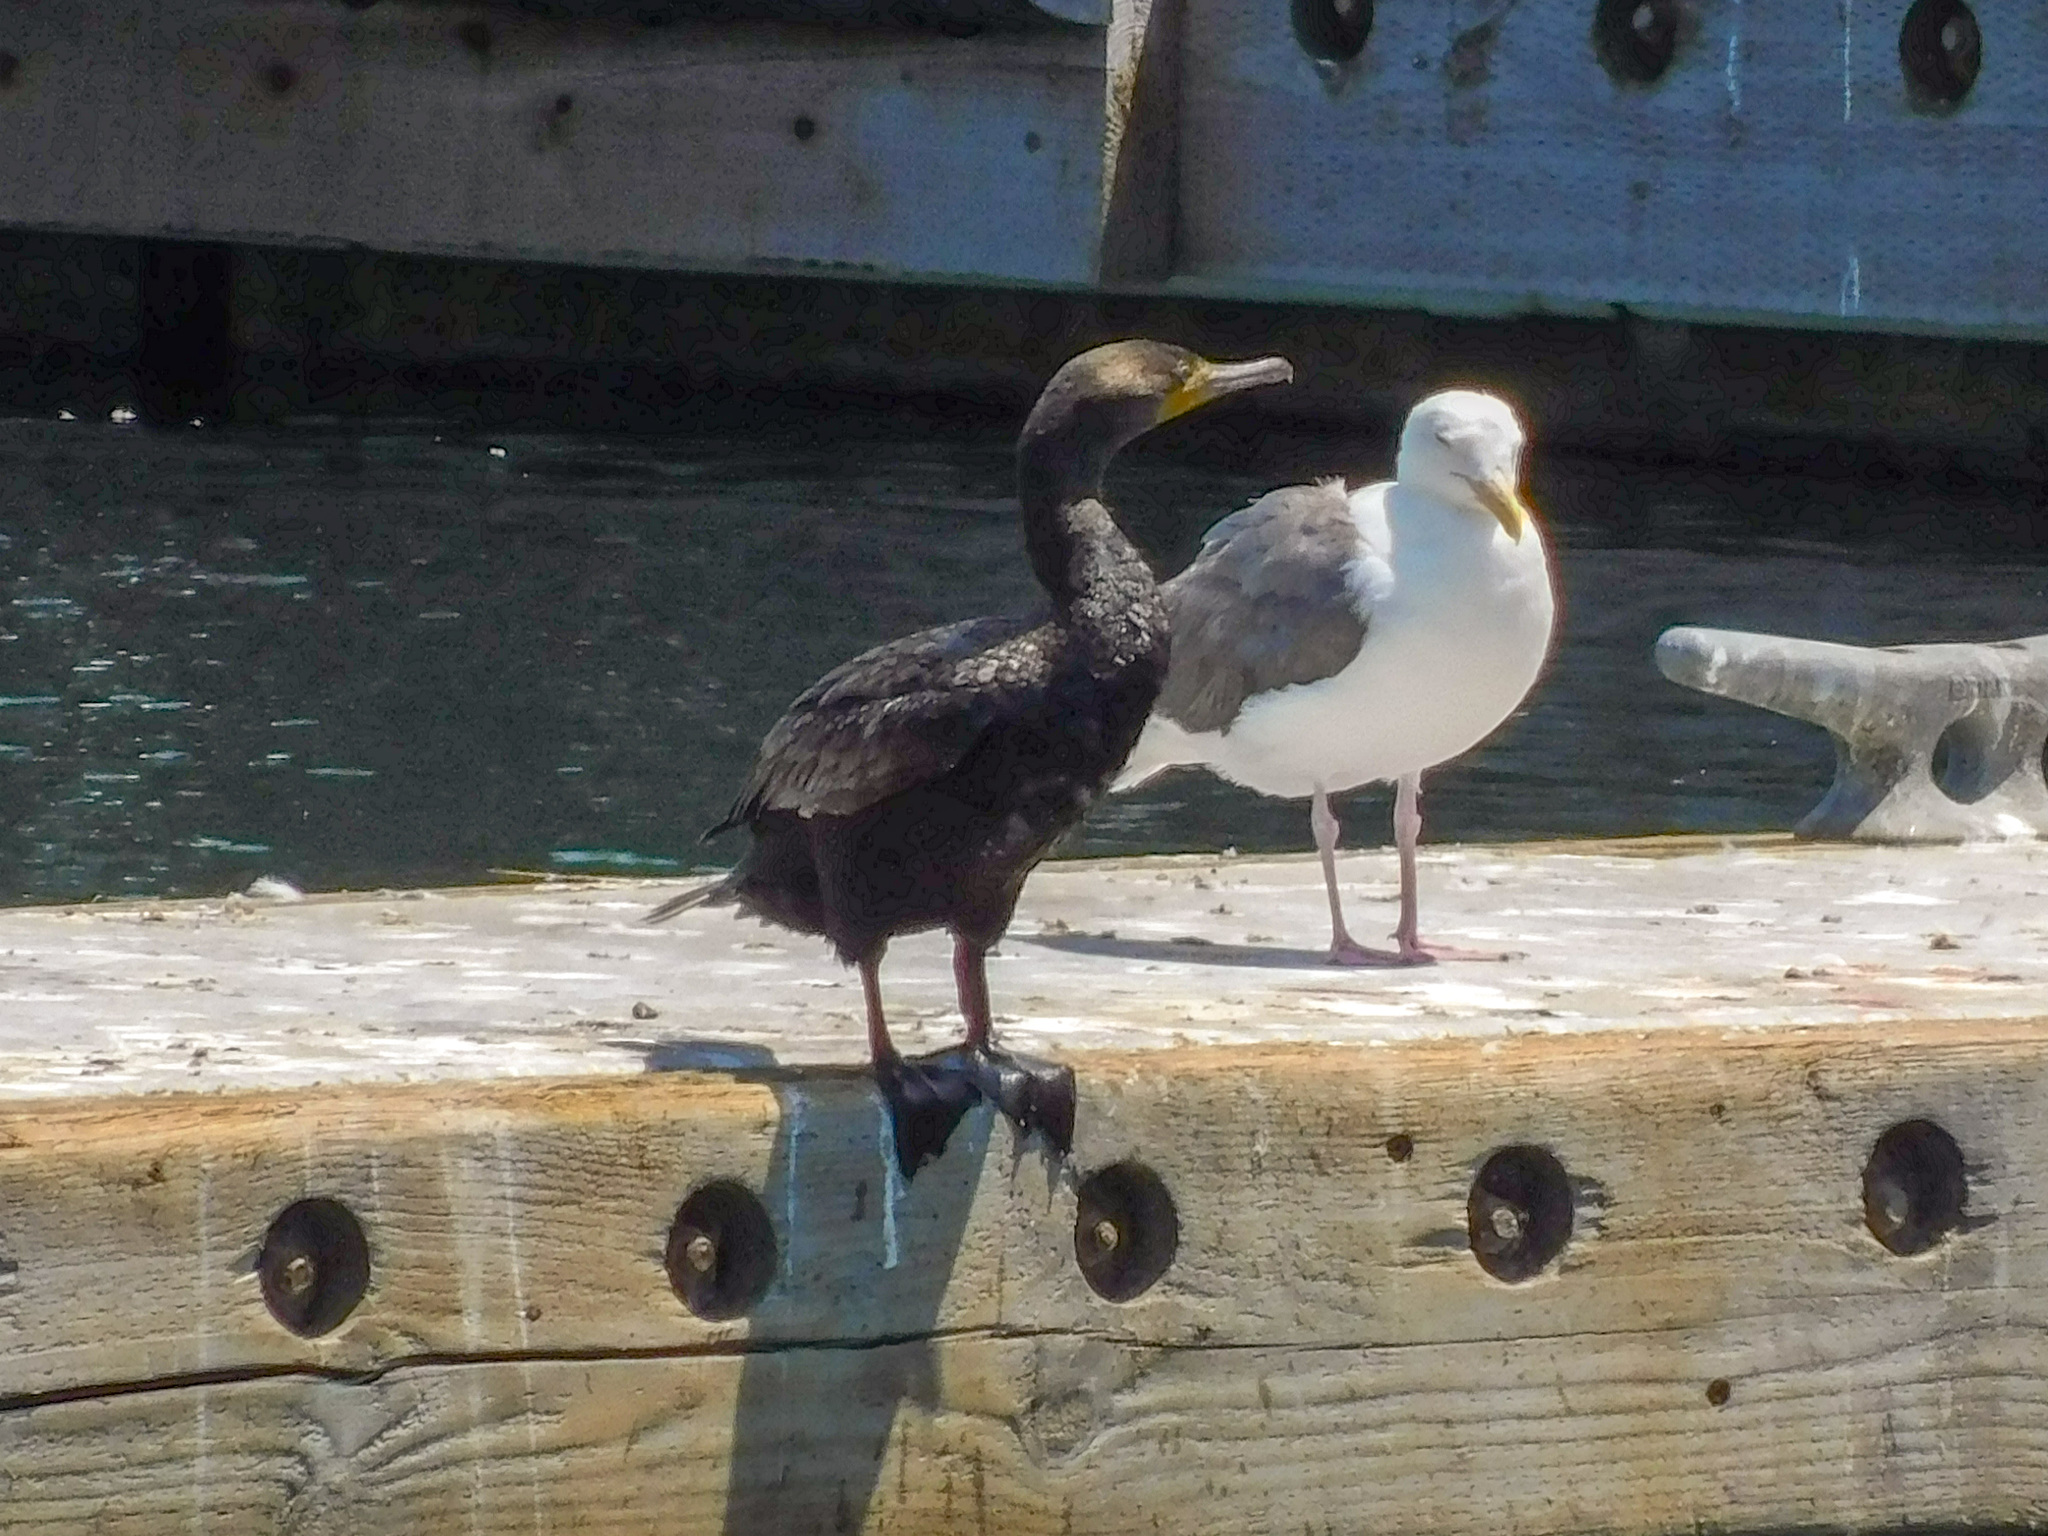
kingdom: Animalia
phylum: Chordata
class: Aves
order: Suliformes
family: Phalacrocoracidae
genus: Phalacrocorax
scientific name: Phalacrocorax auritus
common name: Double-crested cormorant
